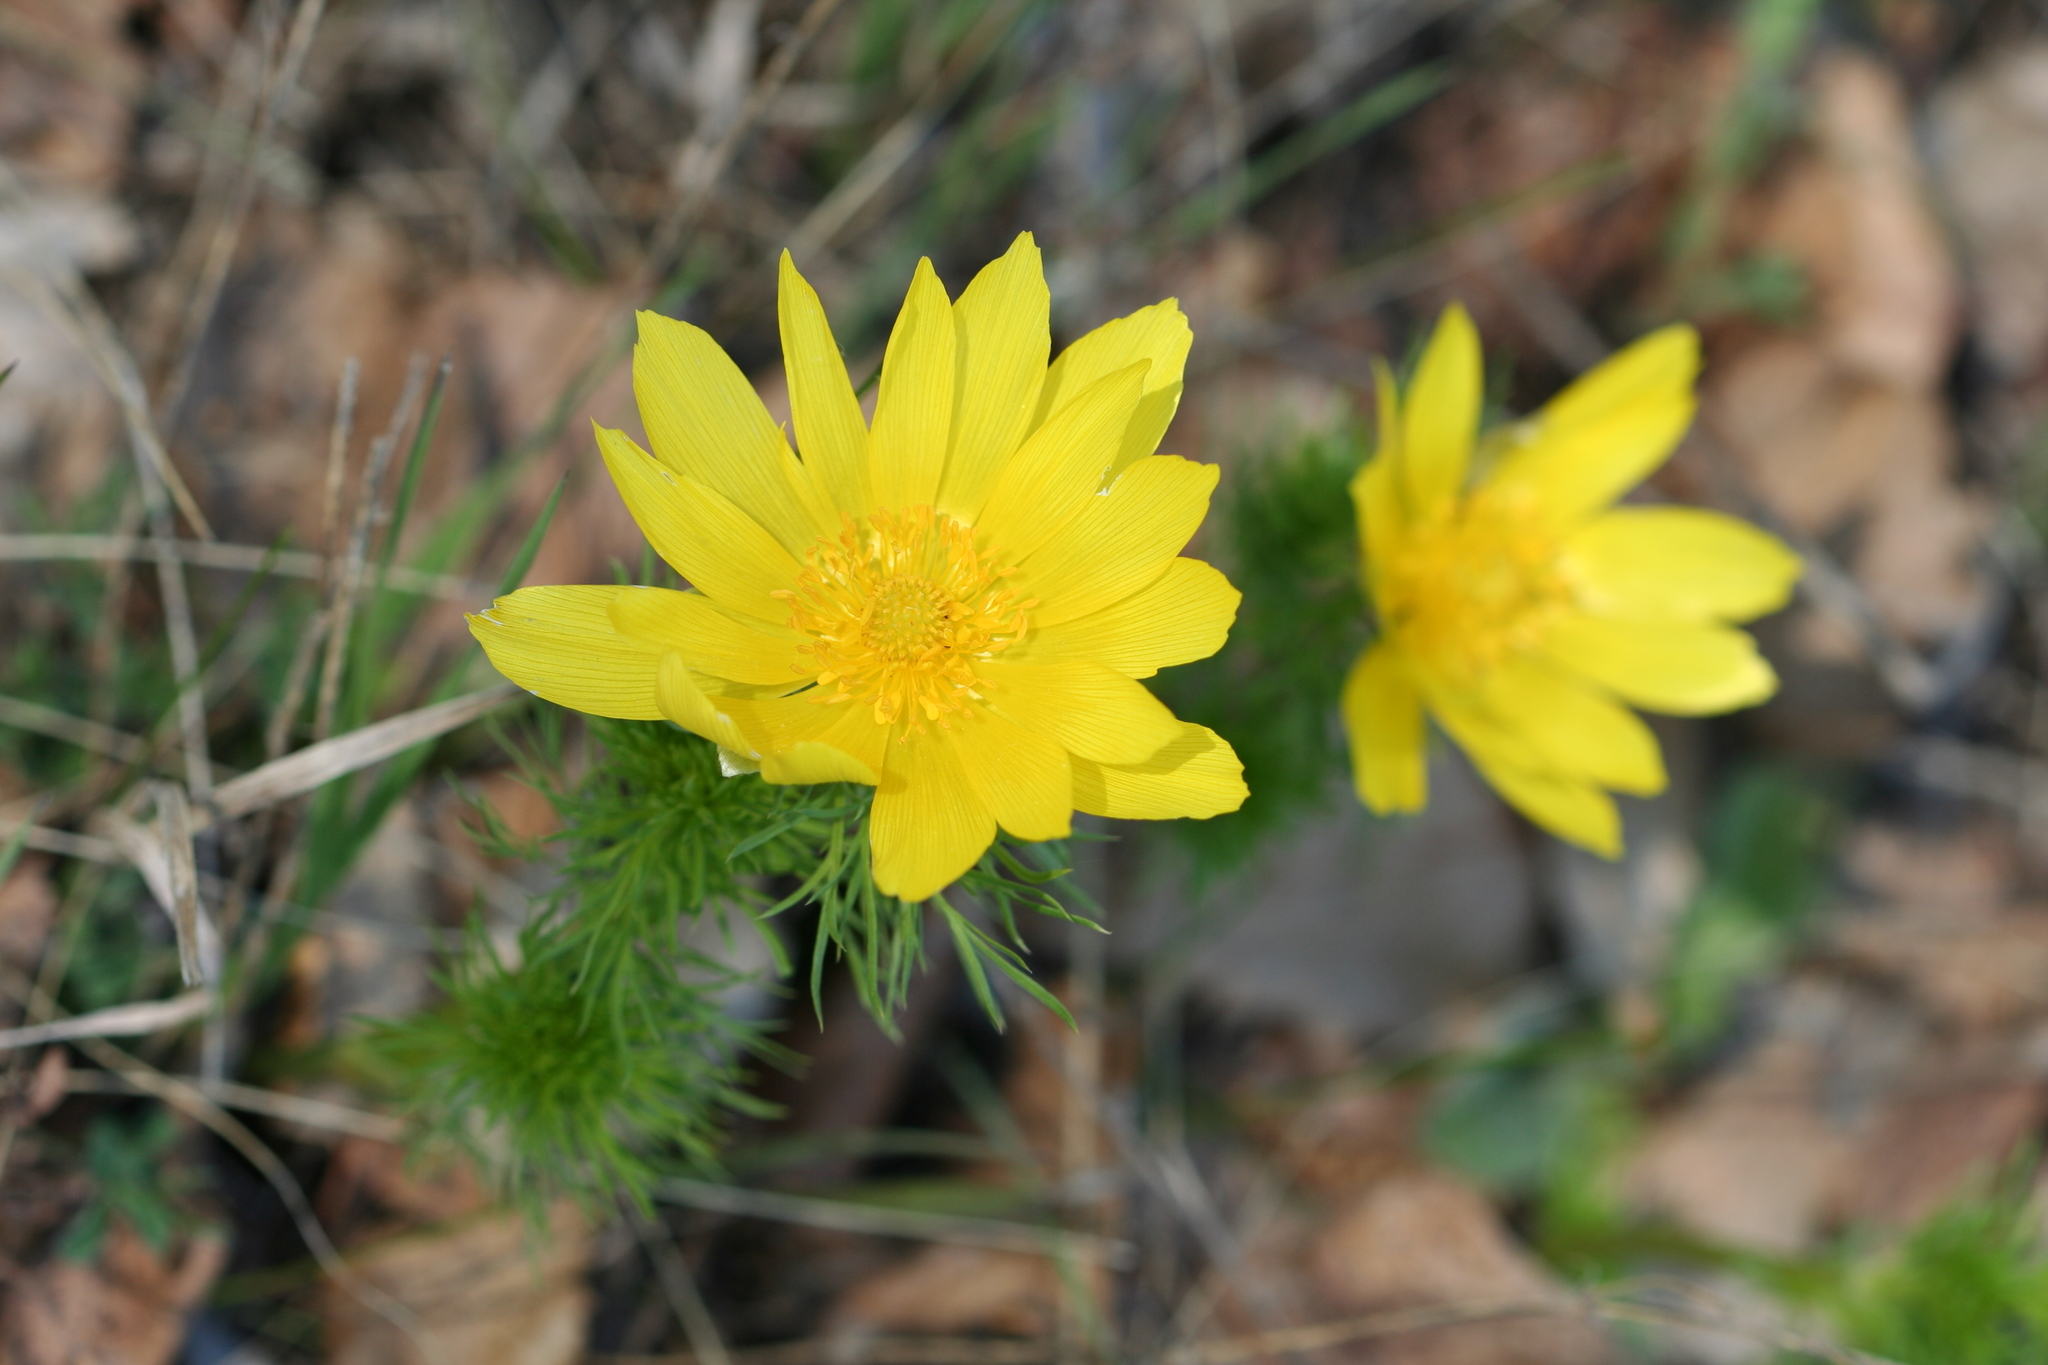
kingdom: Plantae
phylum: Tracheophyta
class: Magnoliopsida
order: Ranunculales
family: Ranunculaceae
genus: Adonis
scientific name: Adonis vernalis
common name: Yellow pheasants-eye
